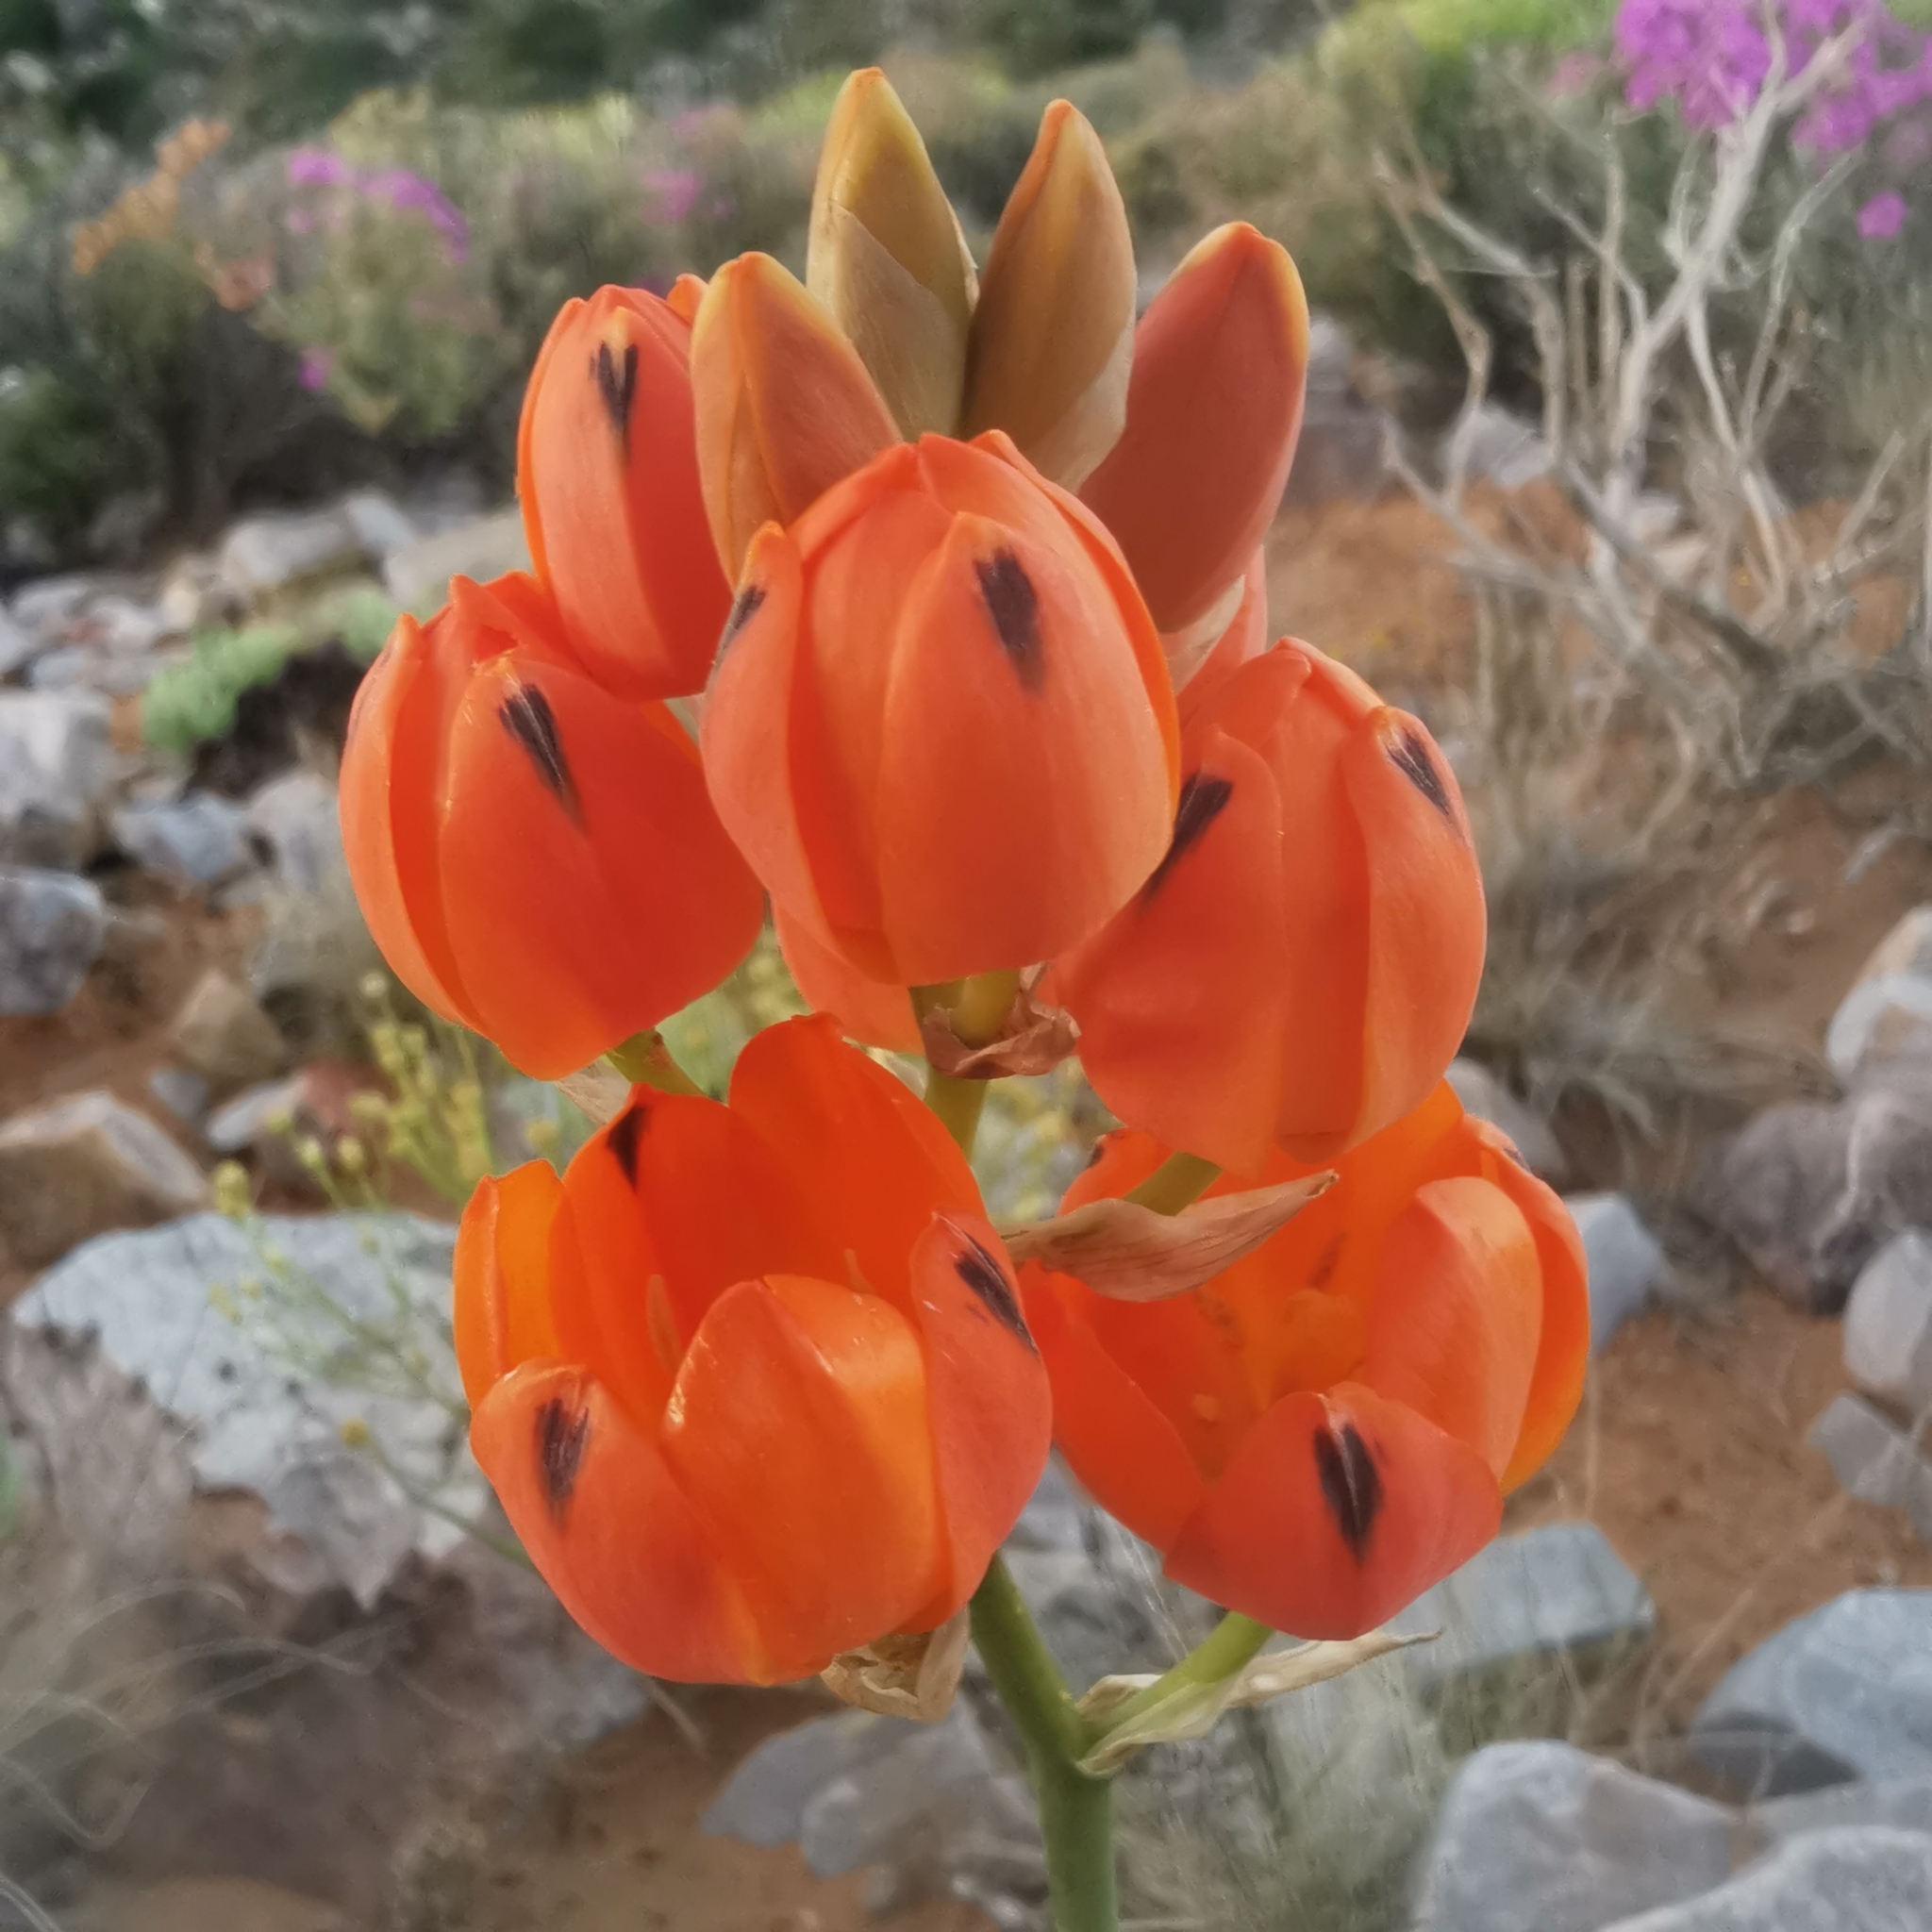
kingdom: Plantae
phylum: Tracheophyta
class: Liliopsida
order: Asparagales
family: Asparagaceae
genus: Ornithogalum
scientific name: Ornithogalum maculatum
